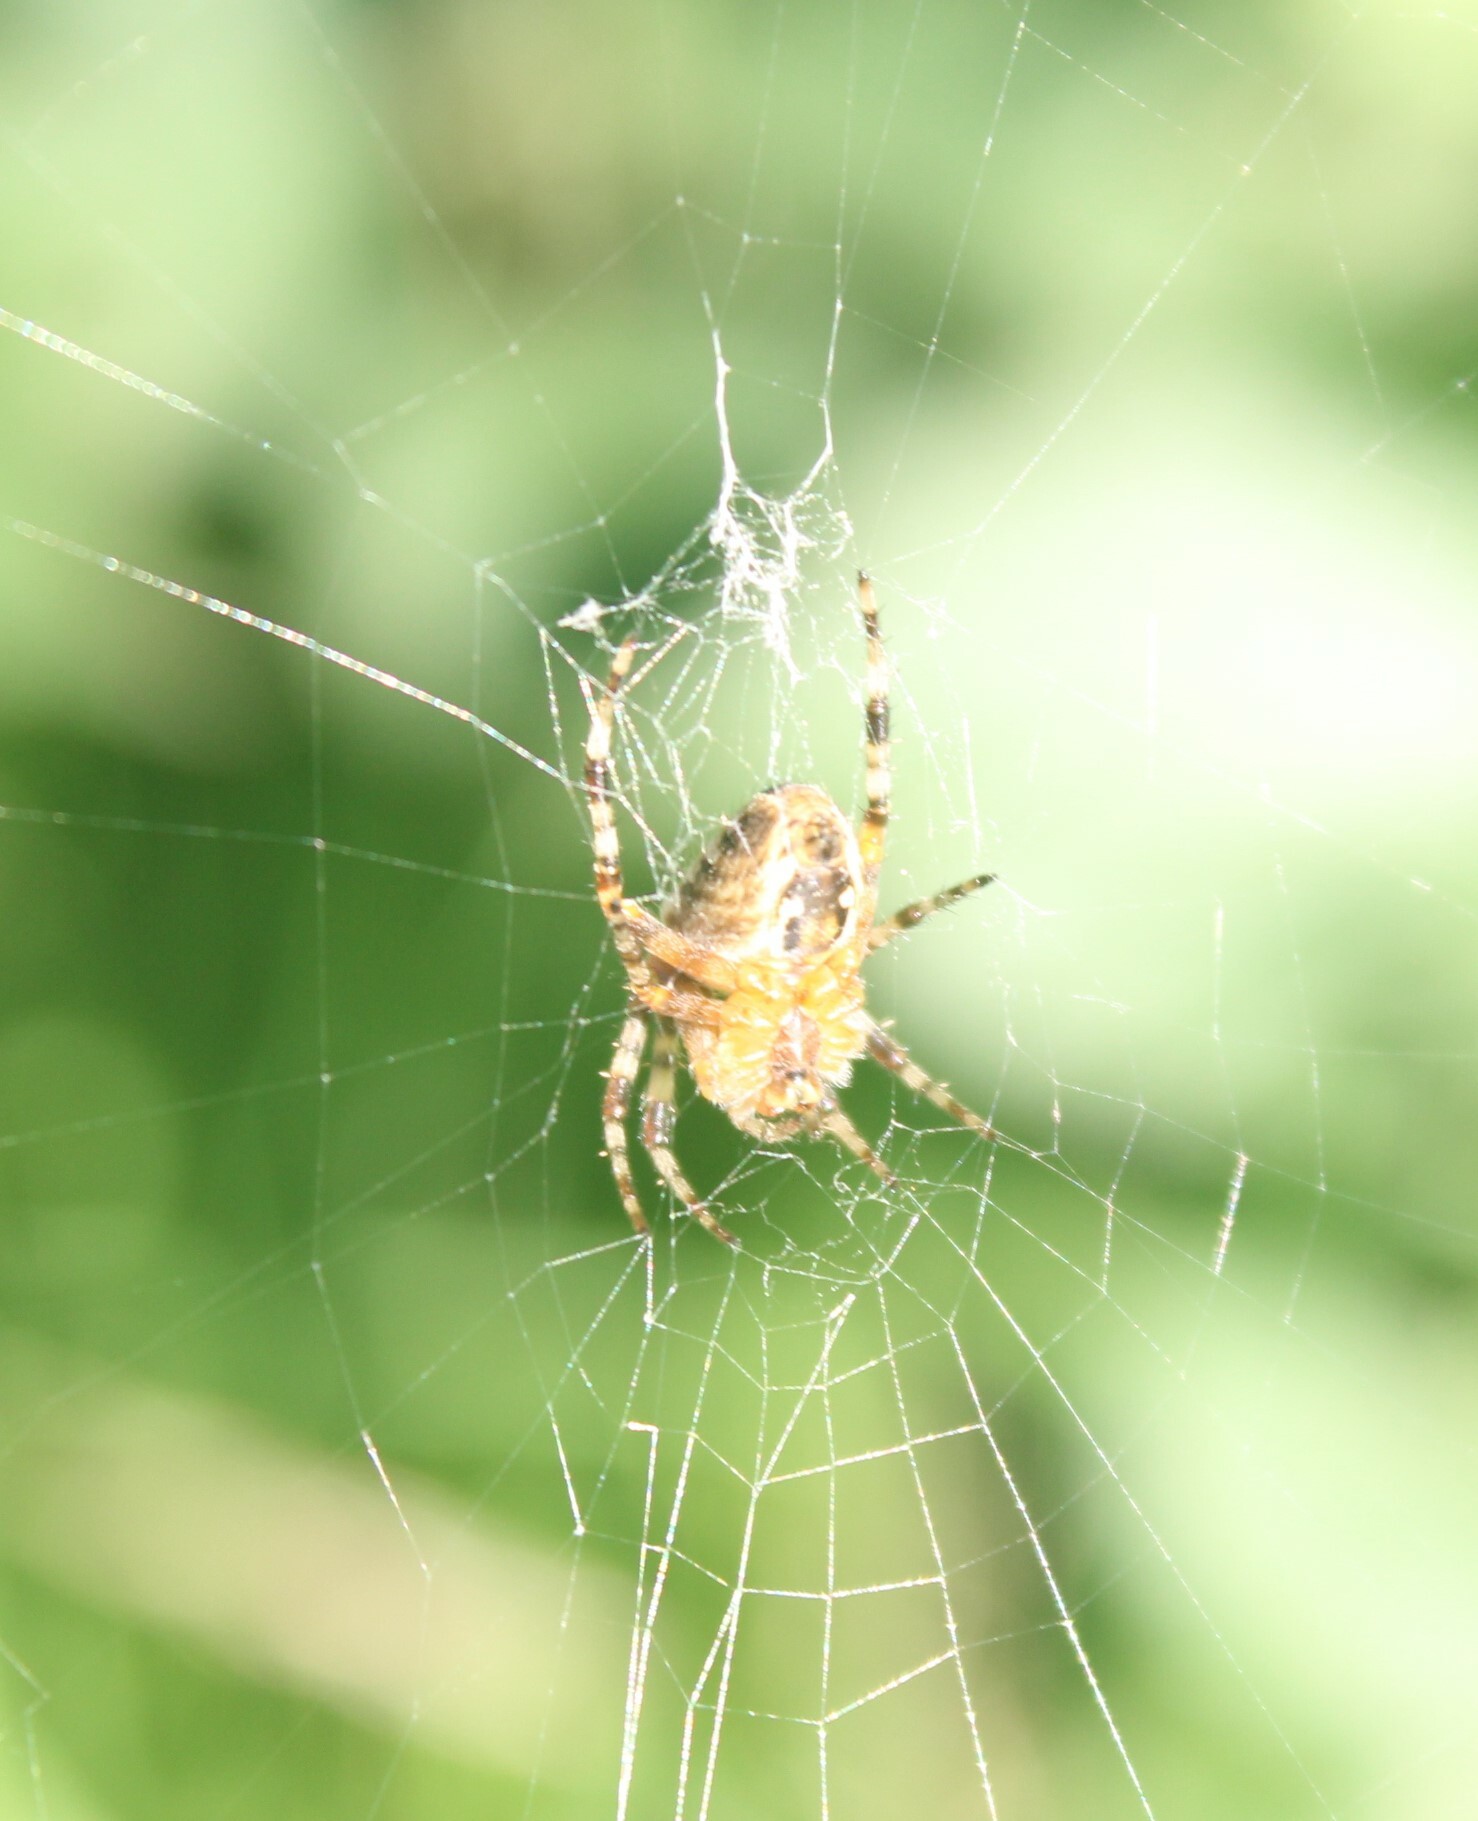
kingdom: Animalia
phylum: Arthropoda
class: Arachnida
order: Araneae
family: Araneidae
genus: Araneus
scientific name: Araneus diadematus
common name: Cross orbweaver
